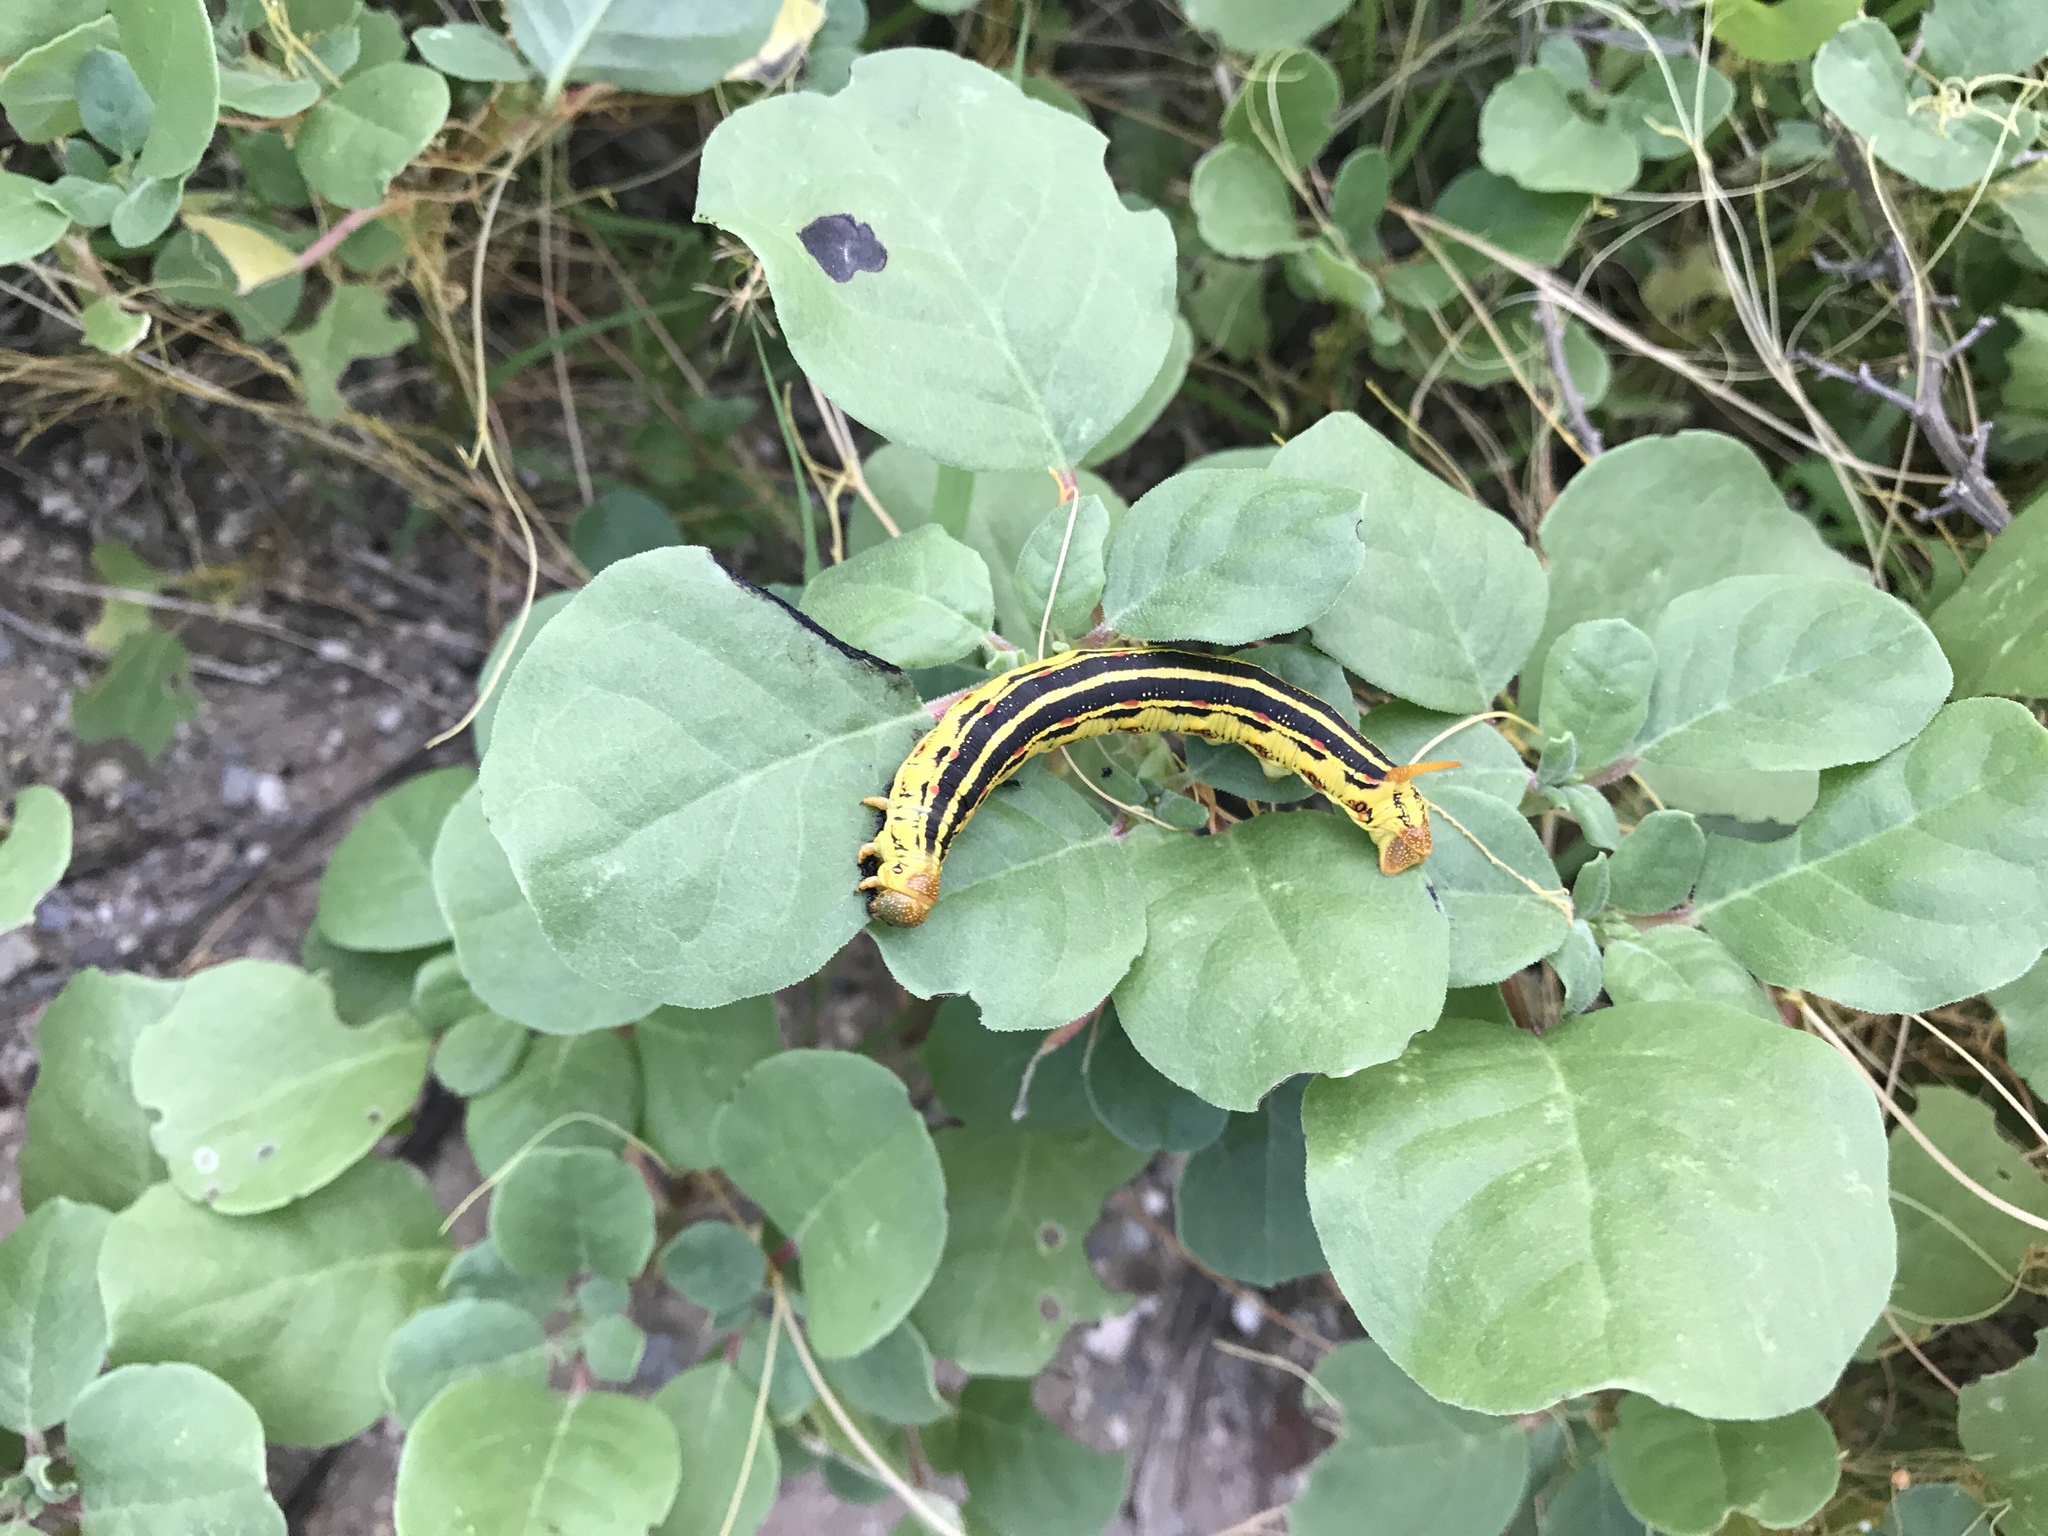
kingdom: Animalia
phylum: Arthropoda
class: Insecta
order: Lepidoptera
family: Sphingidae
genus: Hyles
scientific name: Hyles lineata
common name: White-lined sphinx
